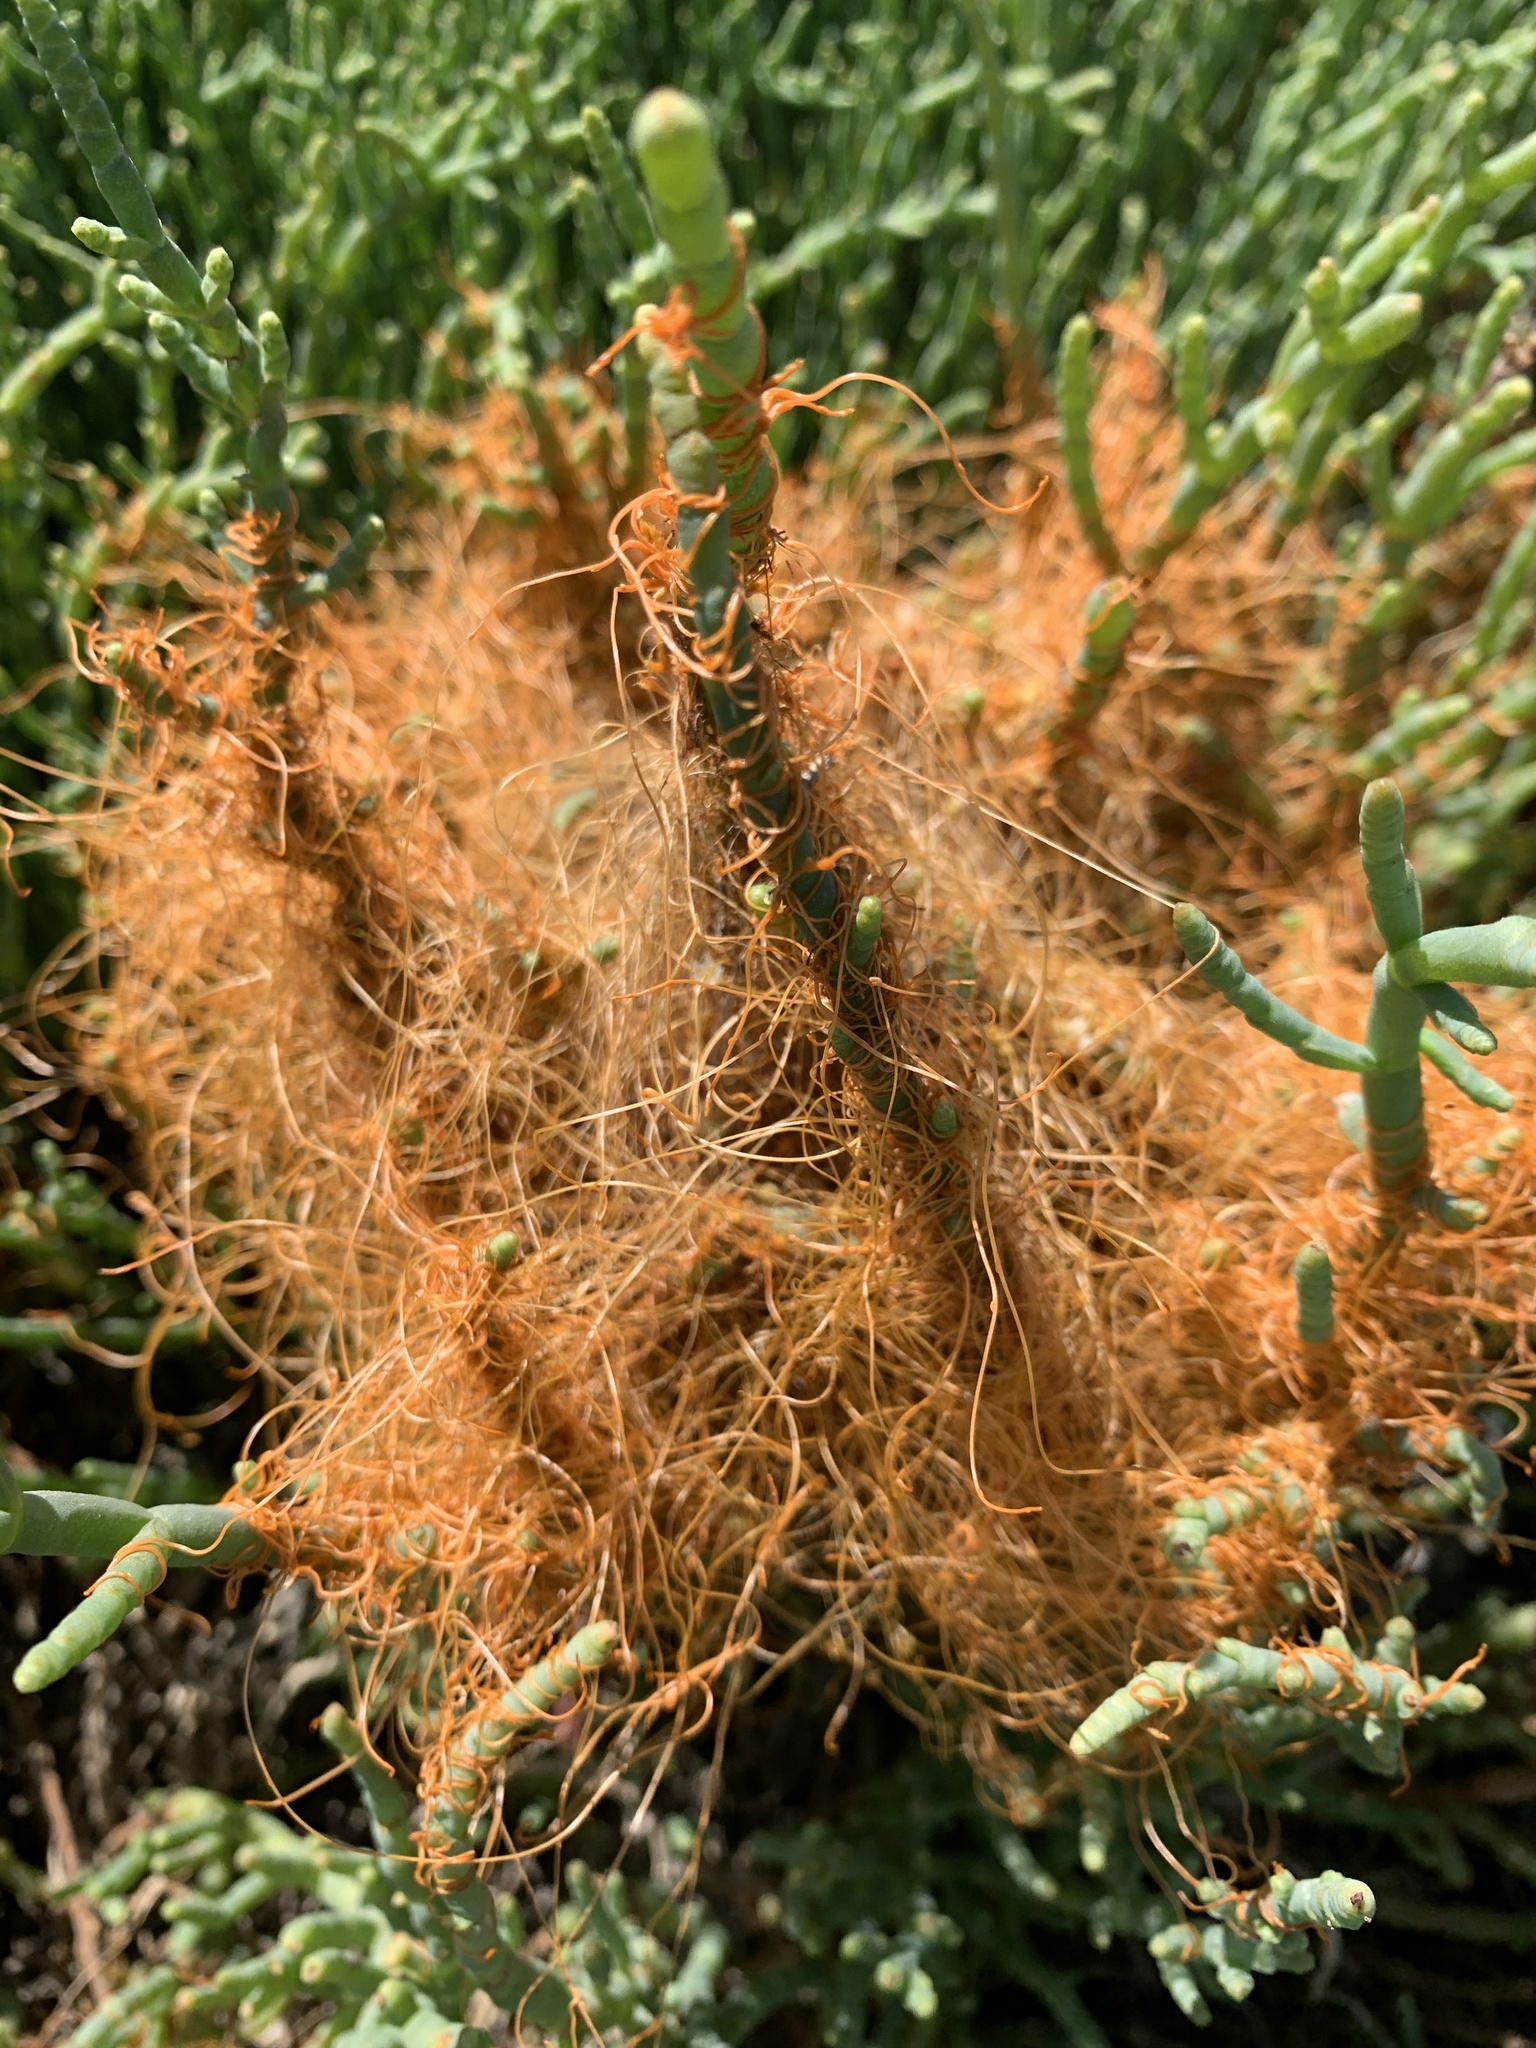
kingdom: Plantae
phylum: Tracheophyta
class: Magnoliopsida
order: Solanales
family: Convolvulaceae
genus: Cuscuta
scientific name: Cuscuta pacifica
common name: Large saltmarsh dodder
